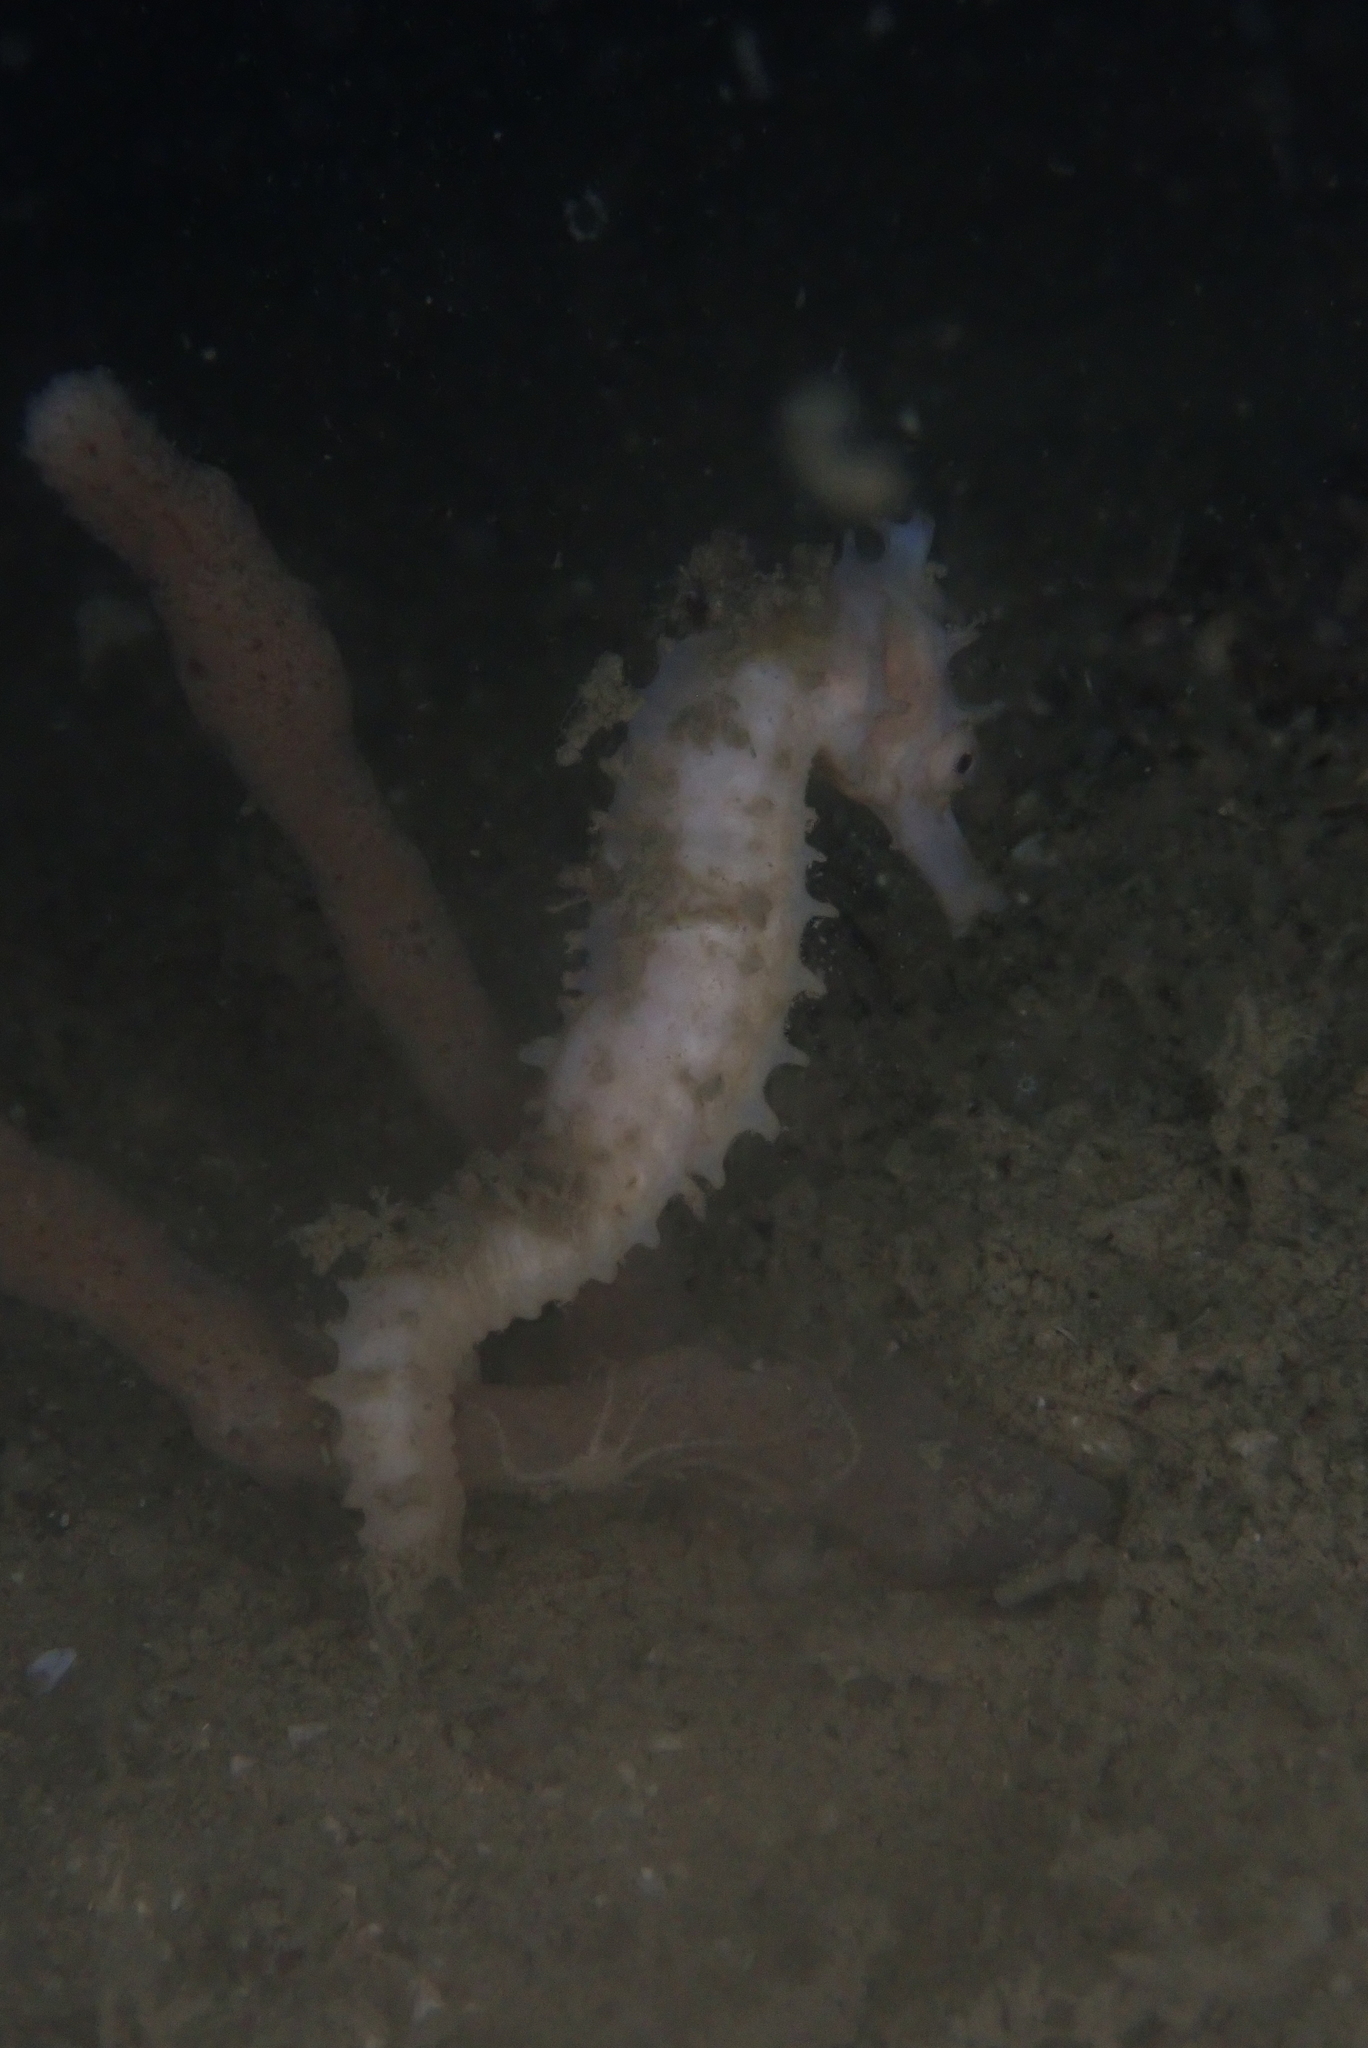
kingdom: Animalia
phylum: Chordata
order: Syngnathiformes
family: Syngnathidae
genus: Hippocampus
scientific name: Hippocampus spinosissimus
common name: Hedgehog seahorse
